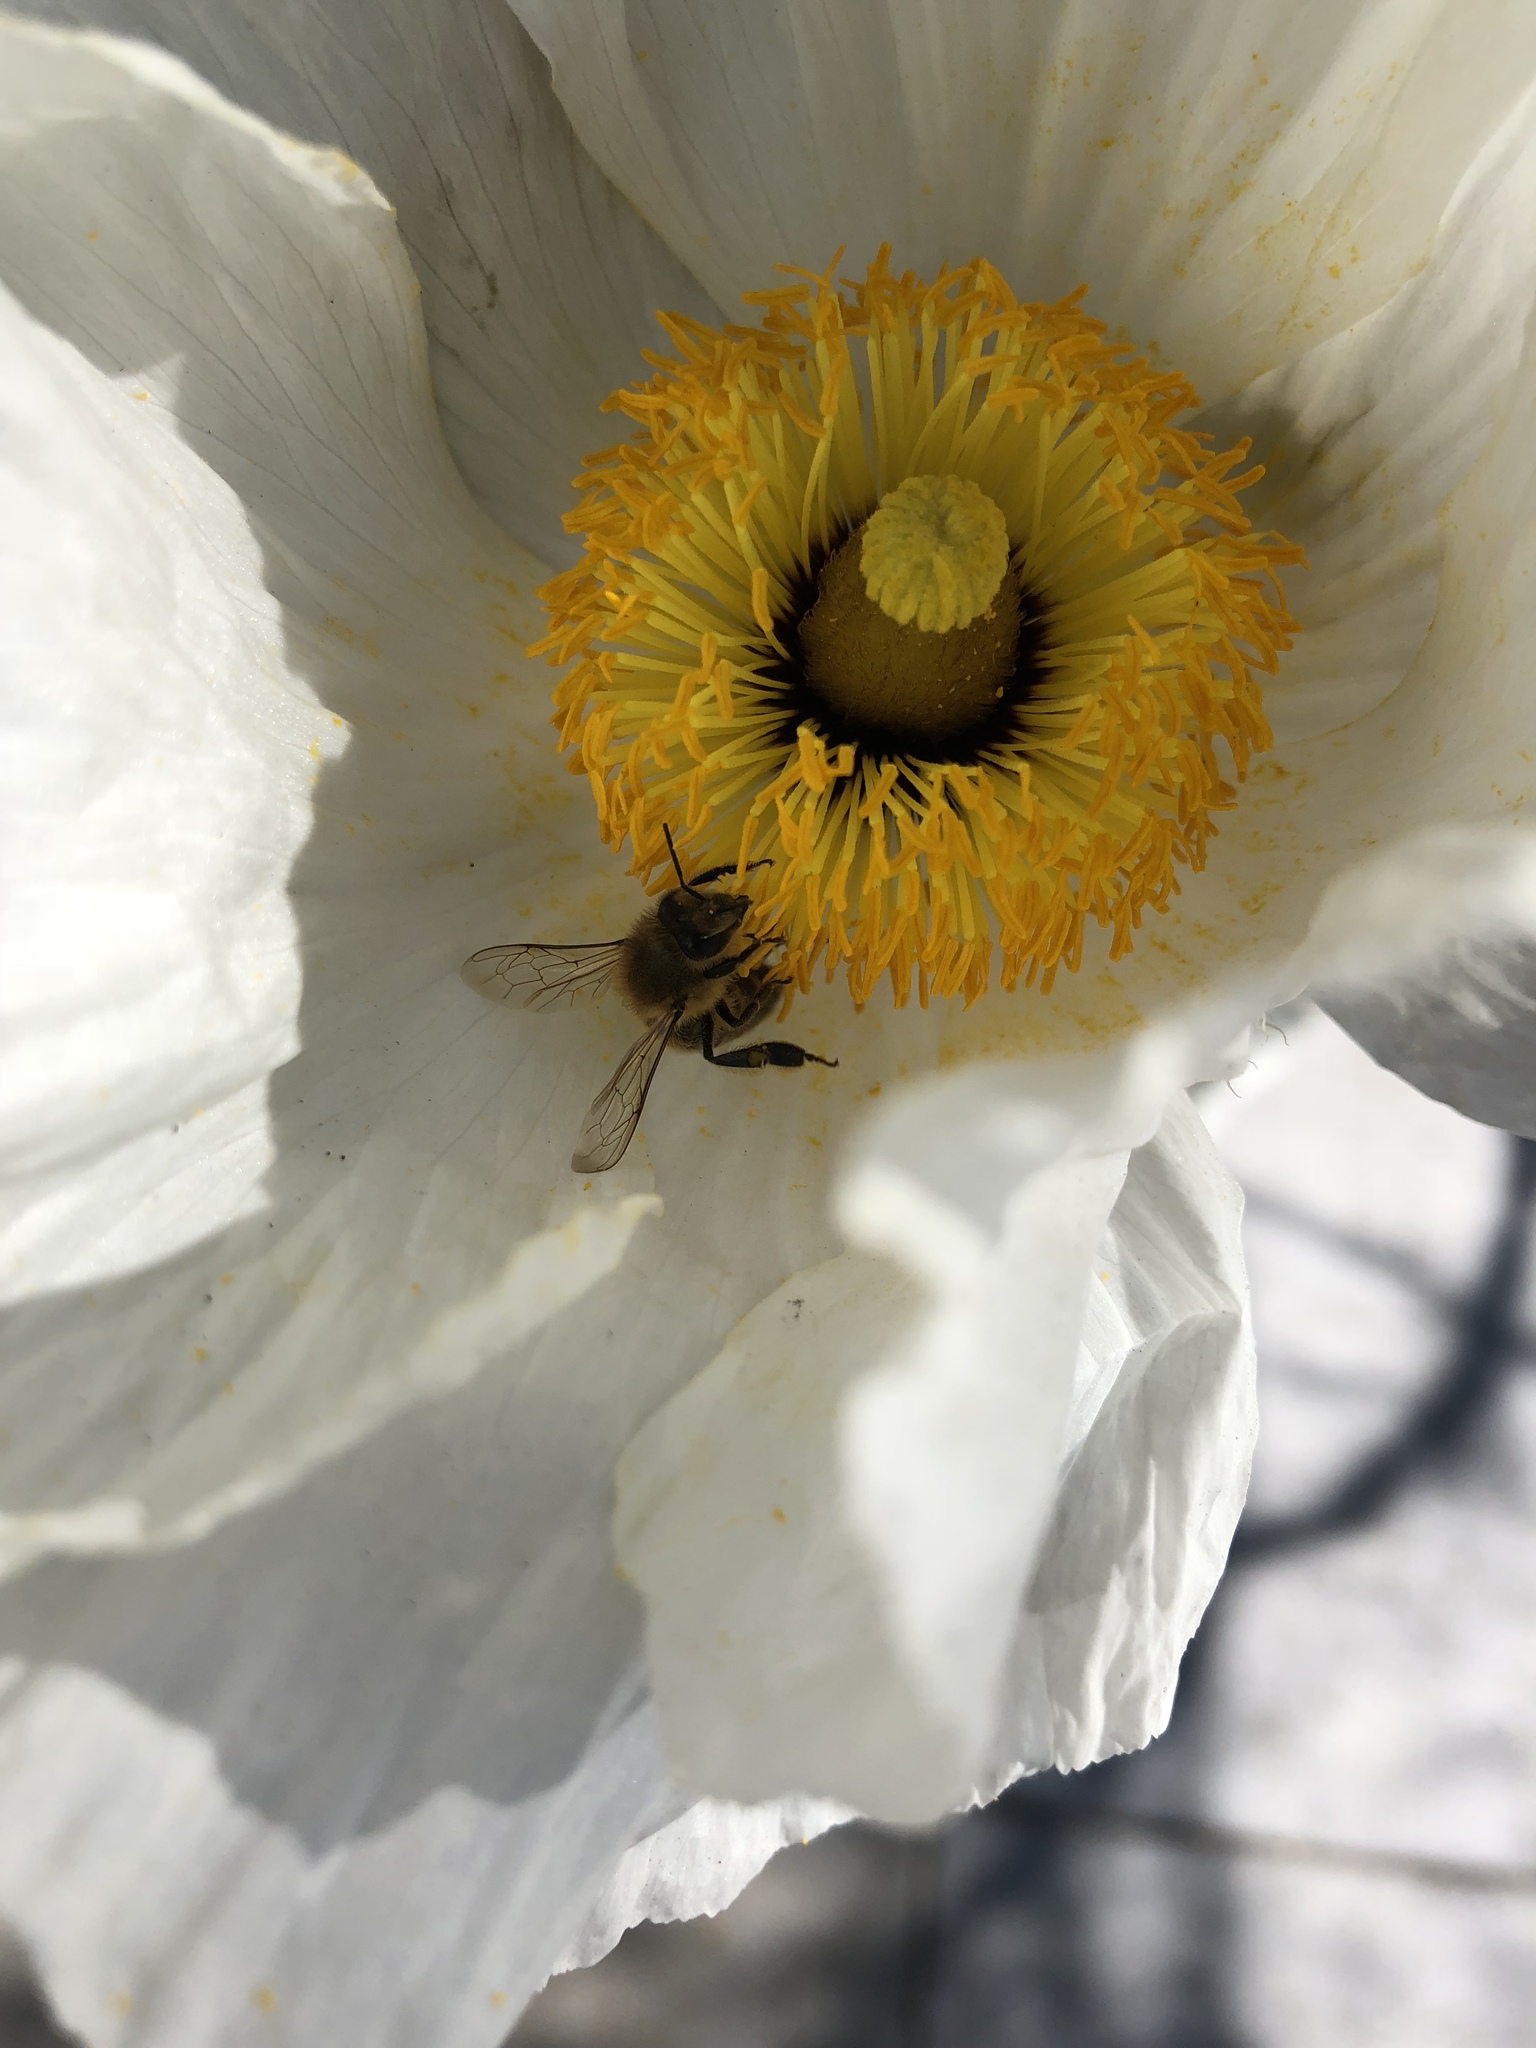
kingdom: Animalia
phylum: Arthropoda
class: Insecta
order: Hymenoptera
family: Apidae
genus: Apis
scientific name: Apis mellifera
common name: Honey bee
